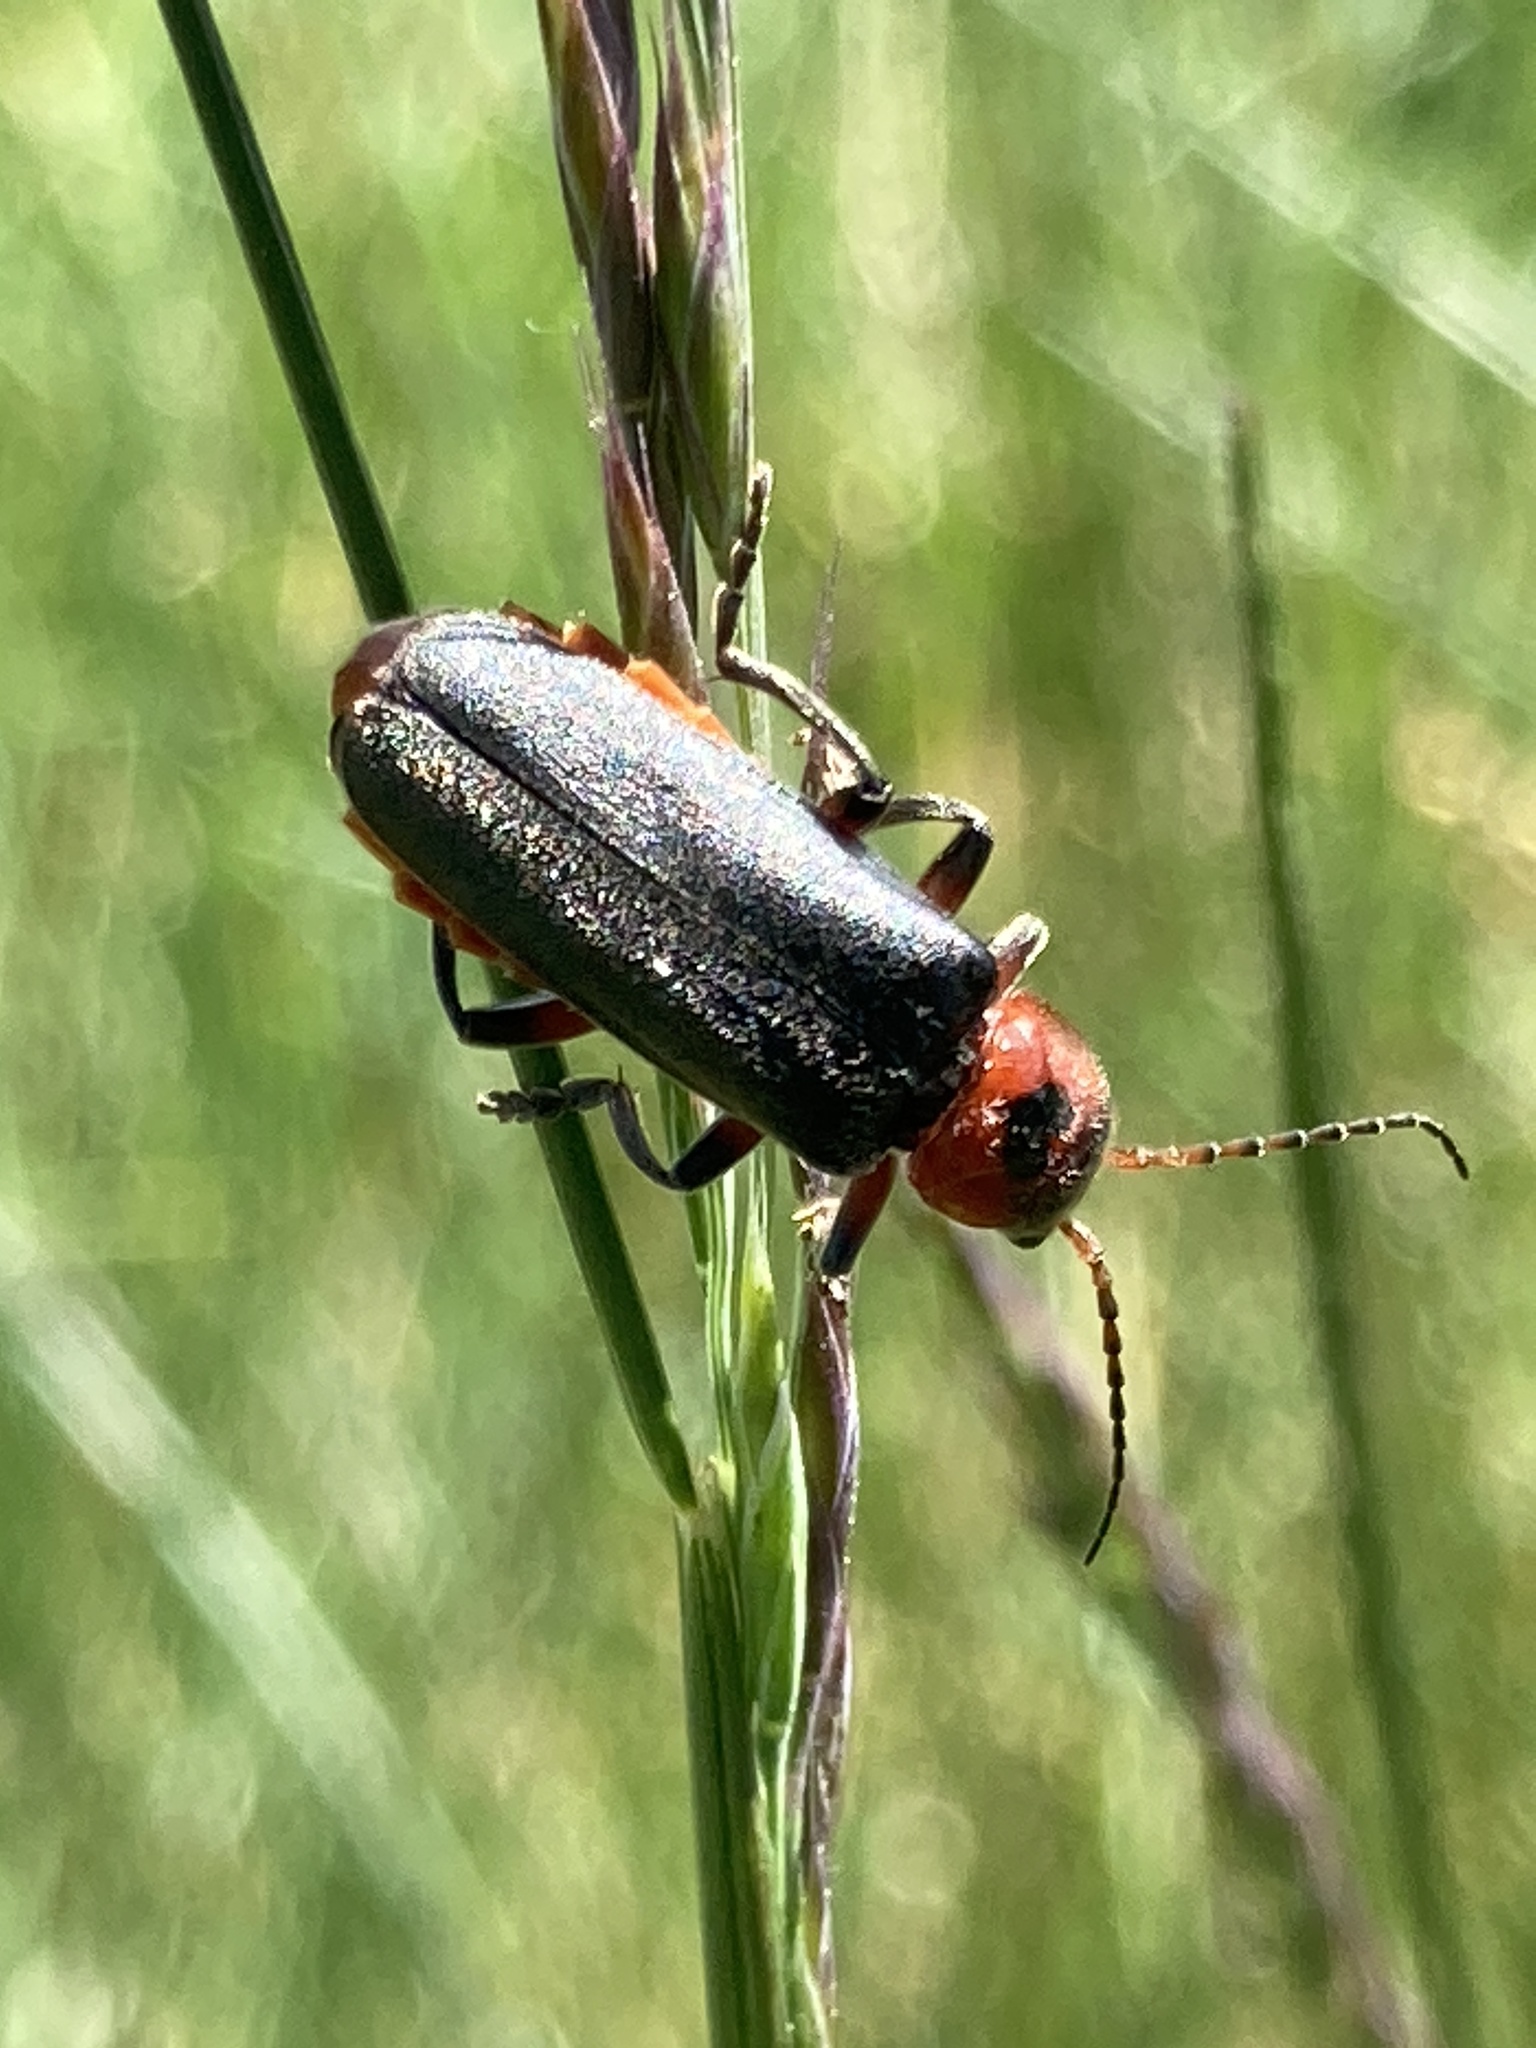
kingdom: Animalia
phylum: Arthropoda
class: Insecta
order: Coleoptera
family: Cantharidae
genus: Cantharis
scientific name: Cantharis rustica
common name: Soldier beetle
